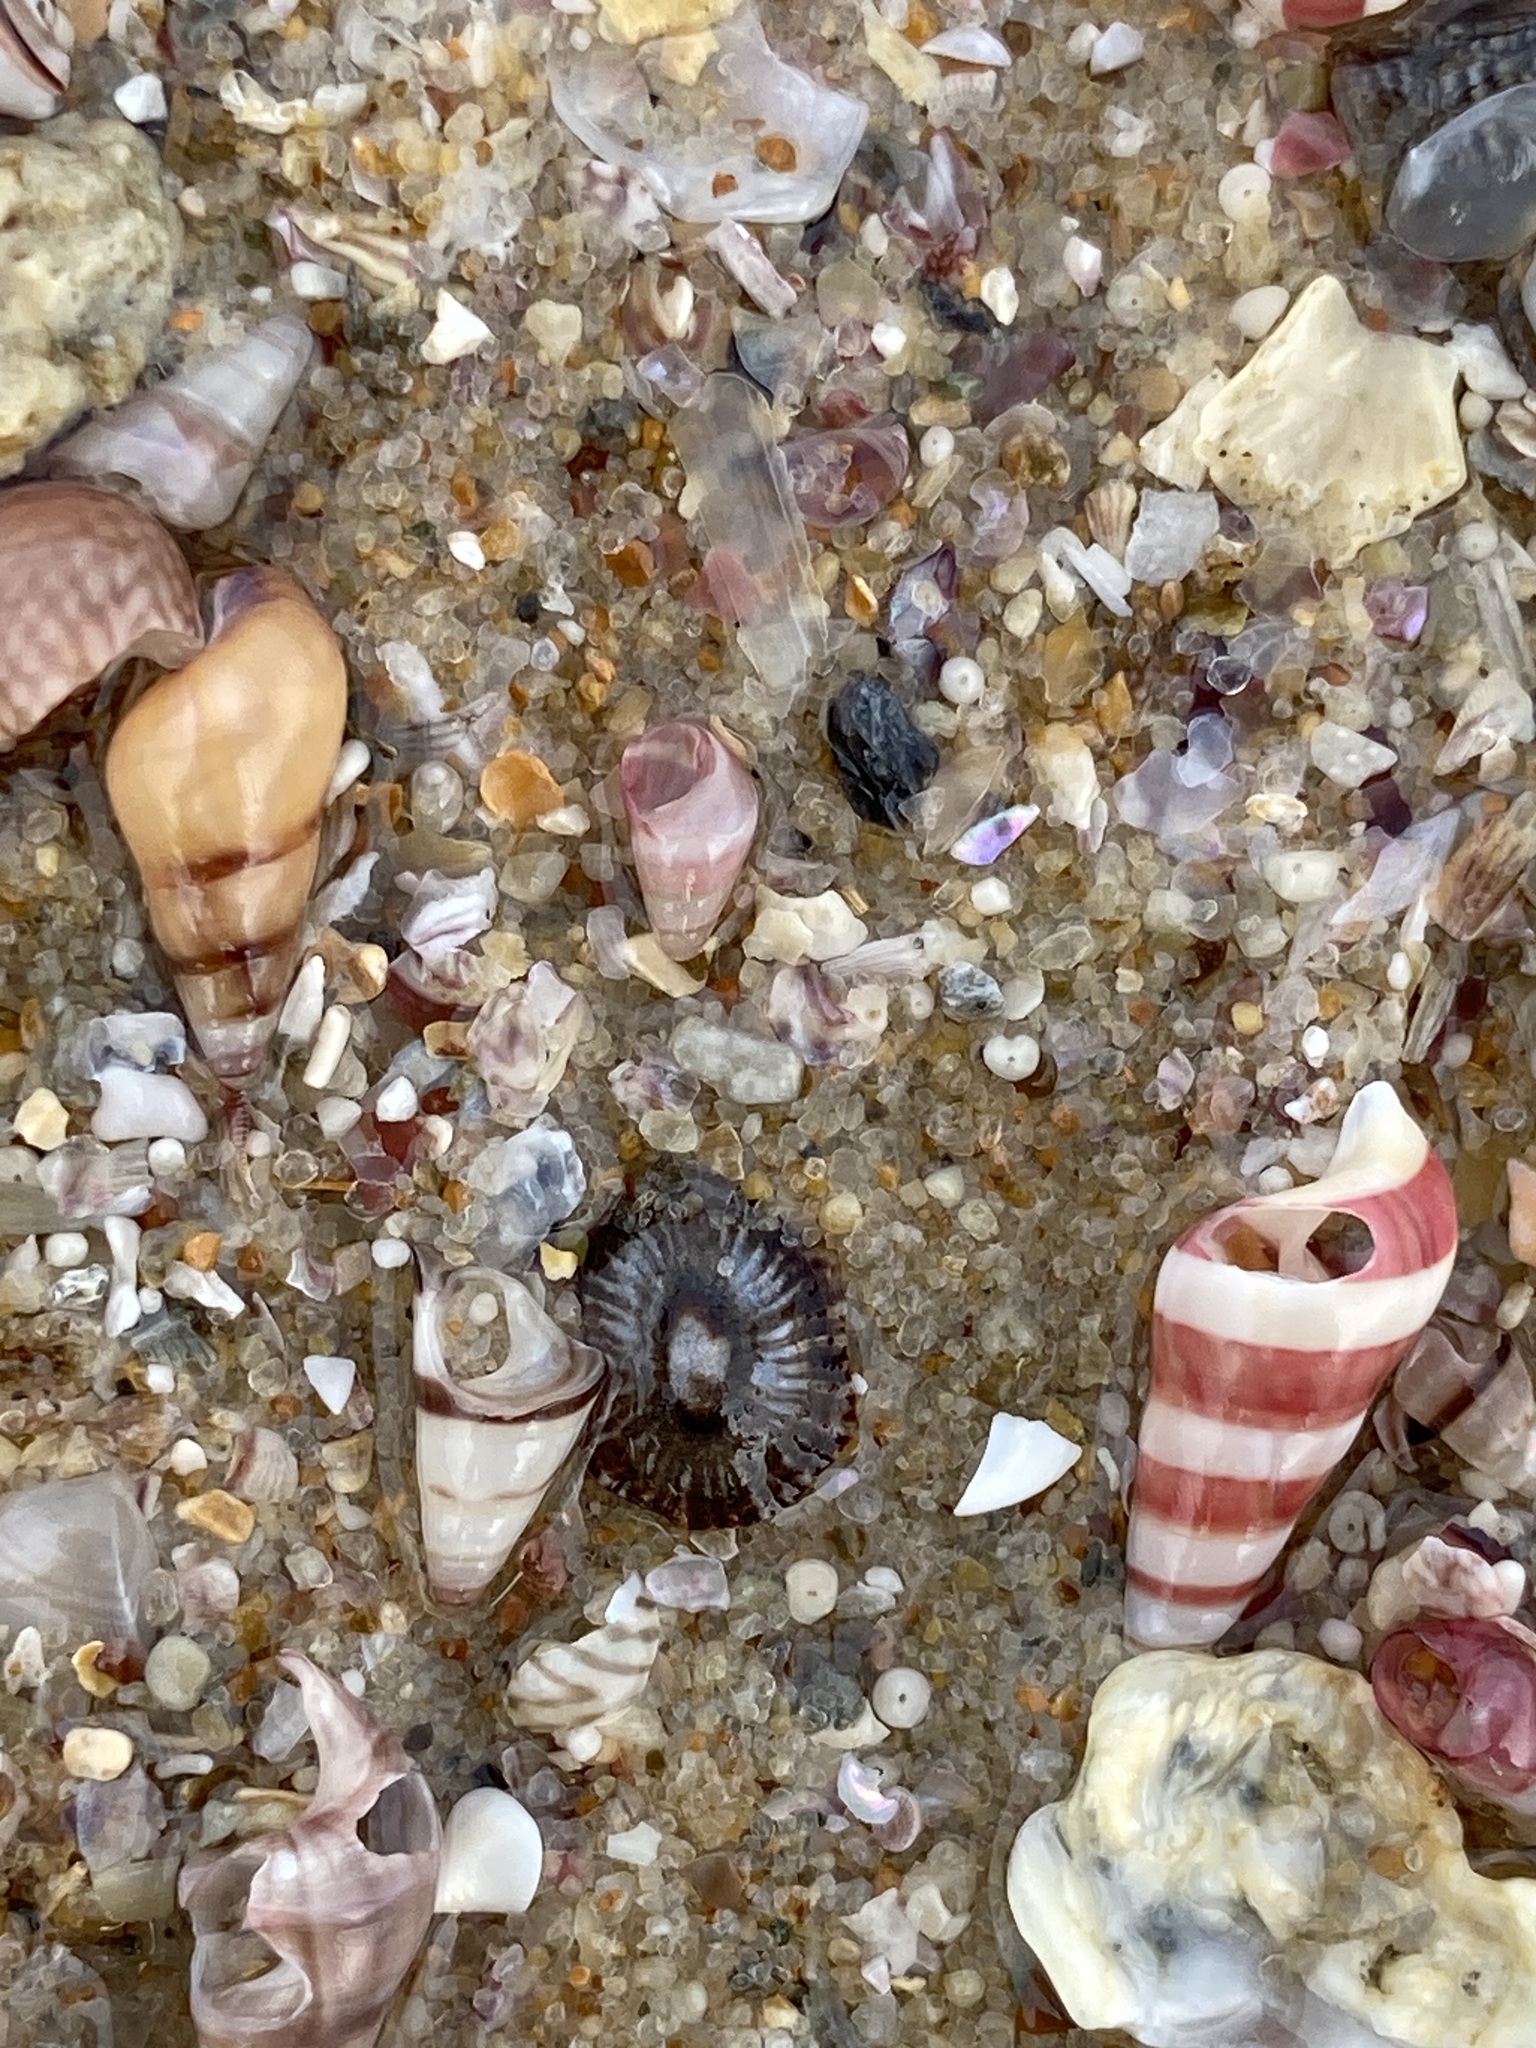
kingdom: Animalia
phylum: Mollusca
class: Gastropoda
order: Siphonariida
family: Siphonariidae
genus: Siphonaria
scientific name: Siphonaria funiculata
